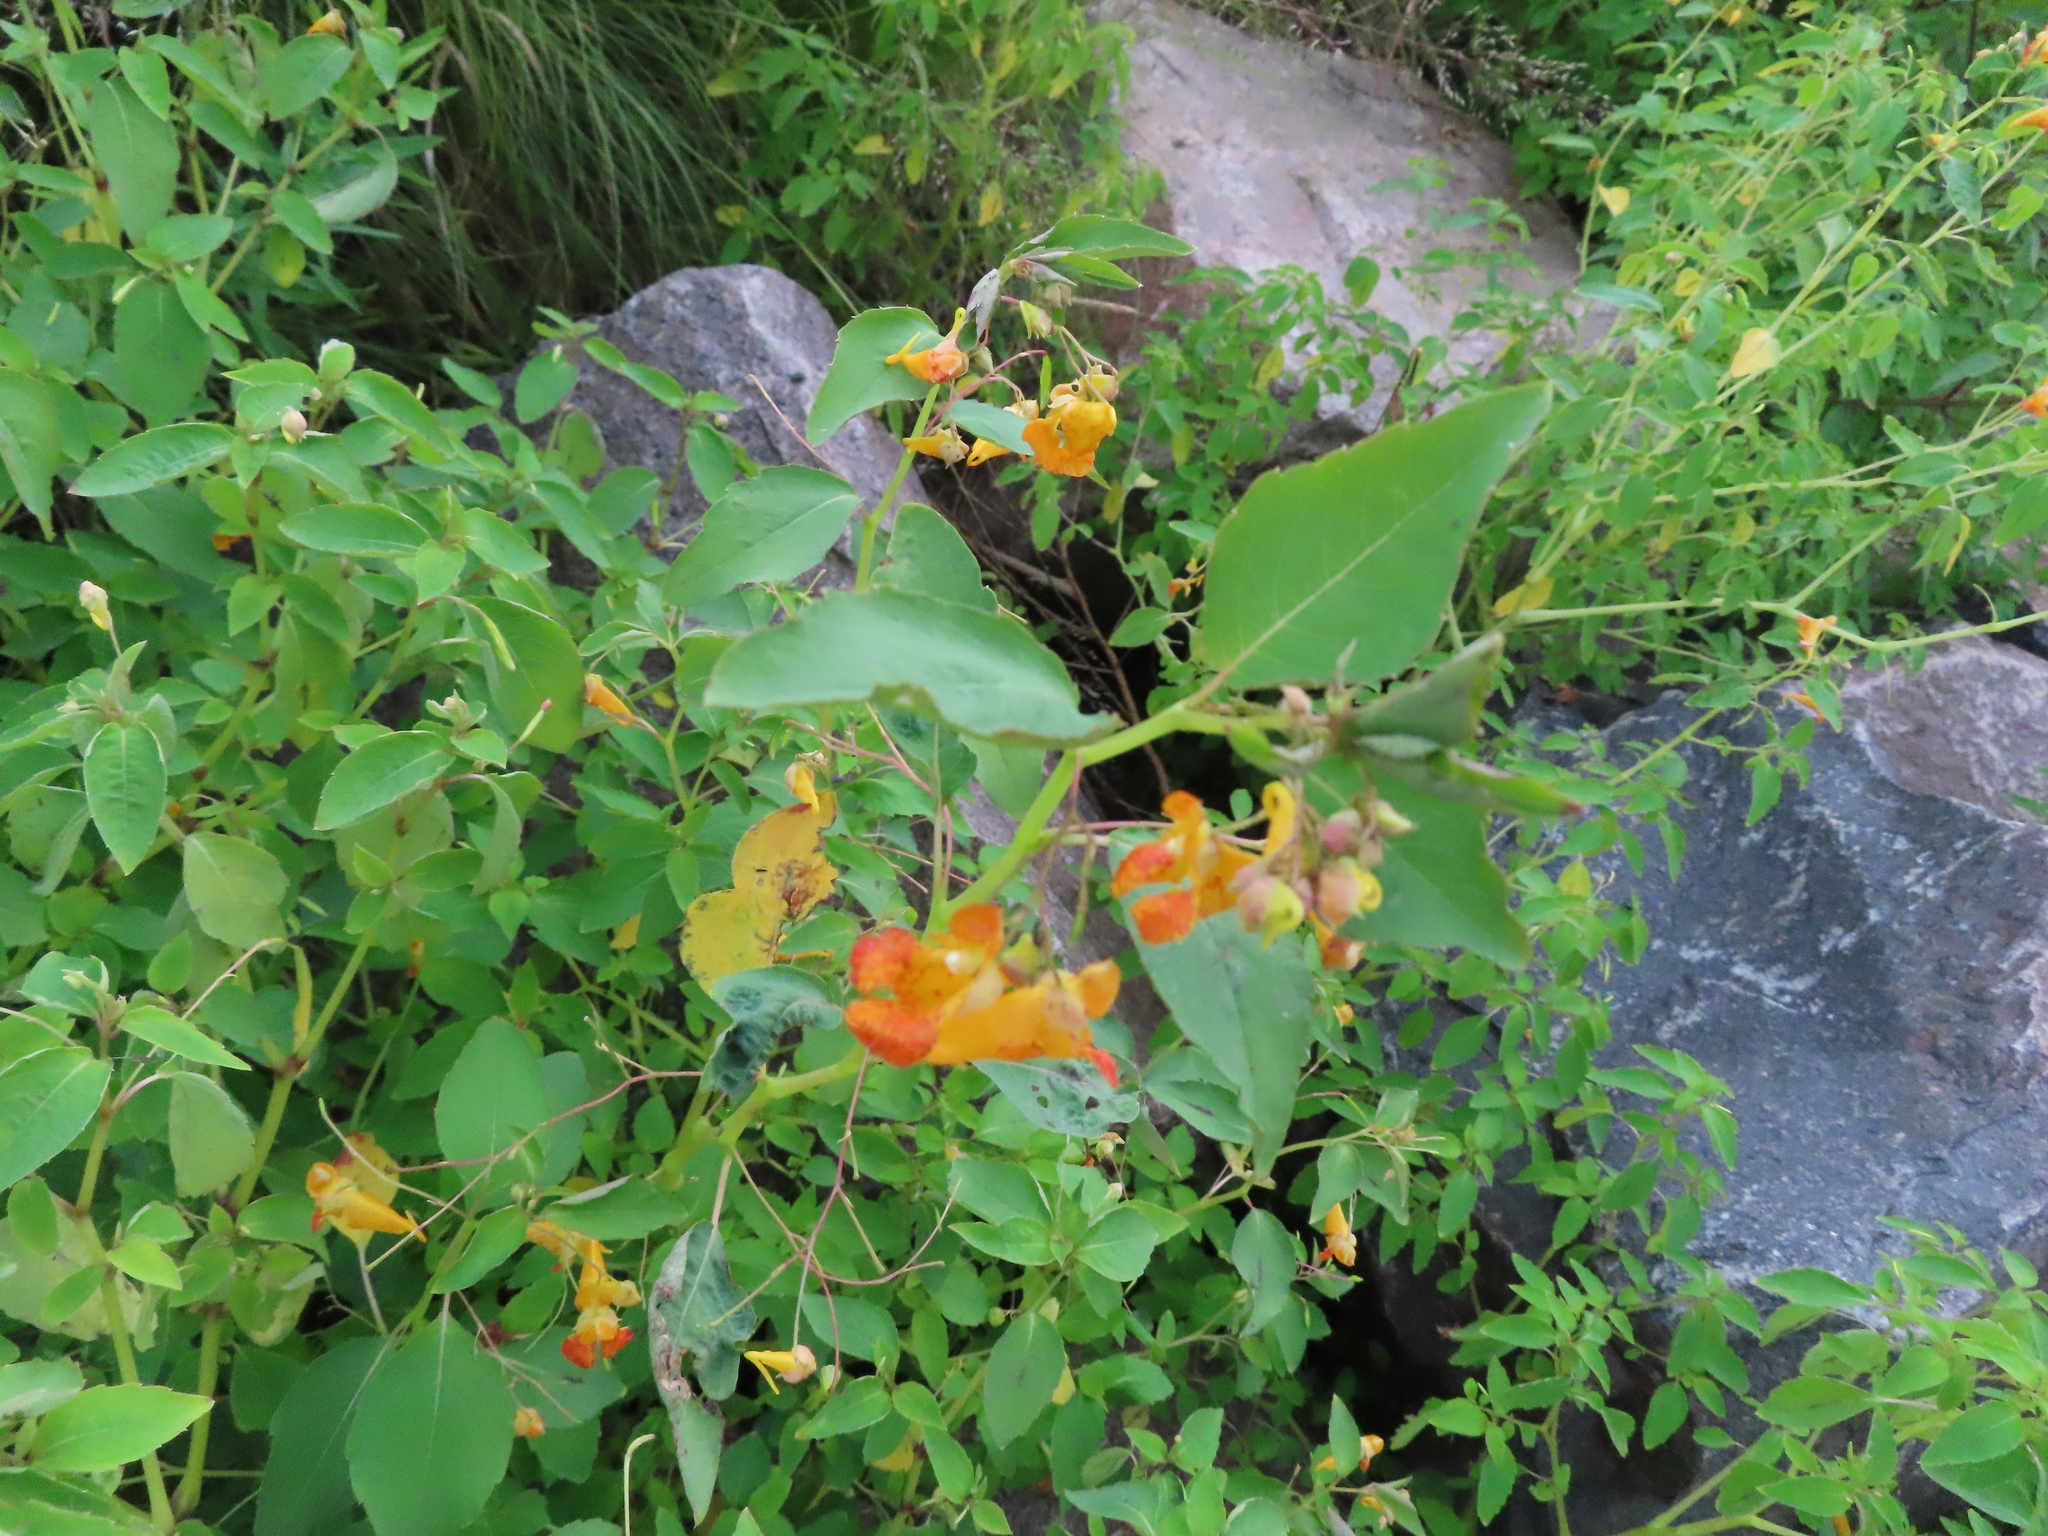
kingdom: Plantae
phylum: Tracheophyta
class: Magnoliopsida
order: Ericales
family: Balsaminaceae
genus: Impatiens
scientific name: Impatiens capensis
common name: Orange balsam
